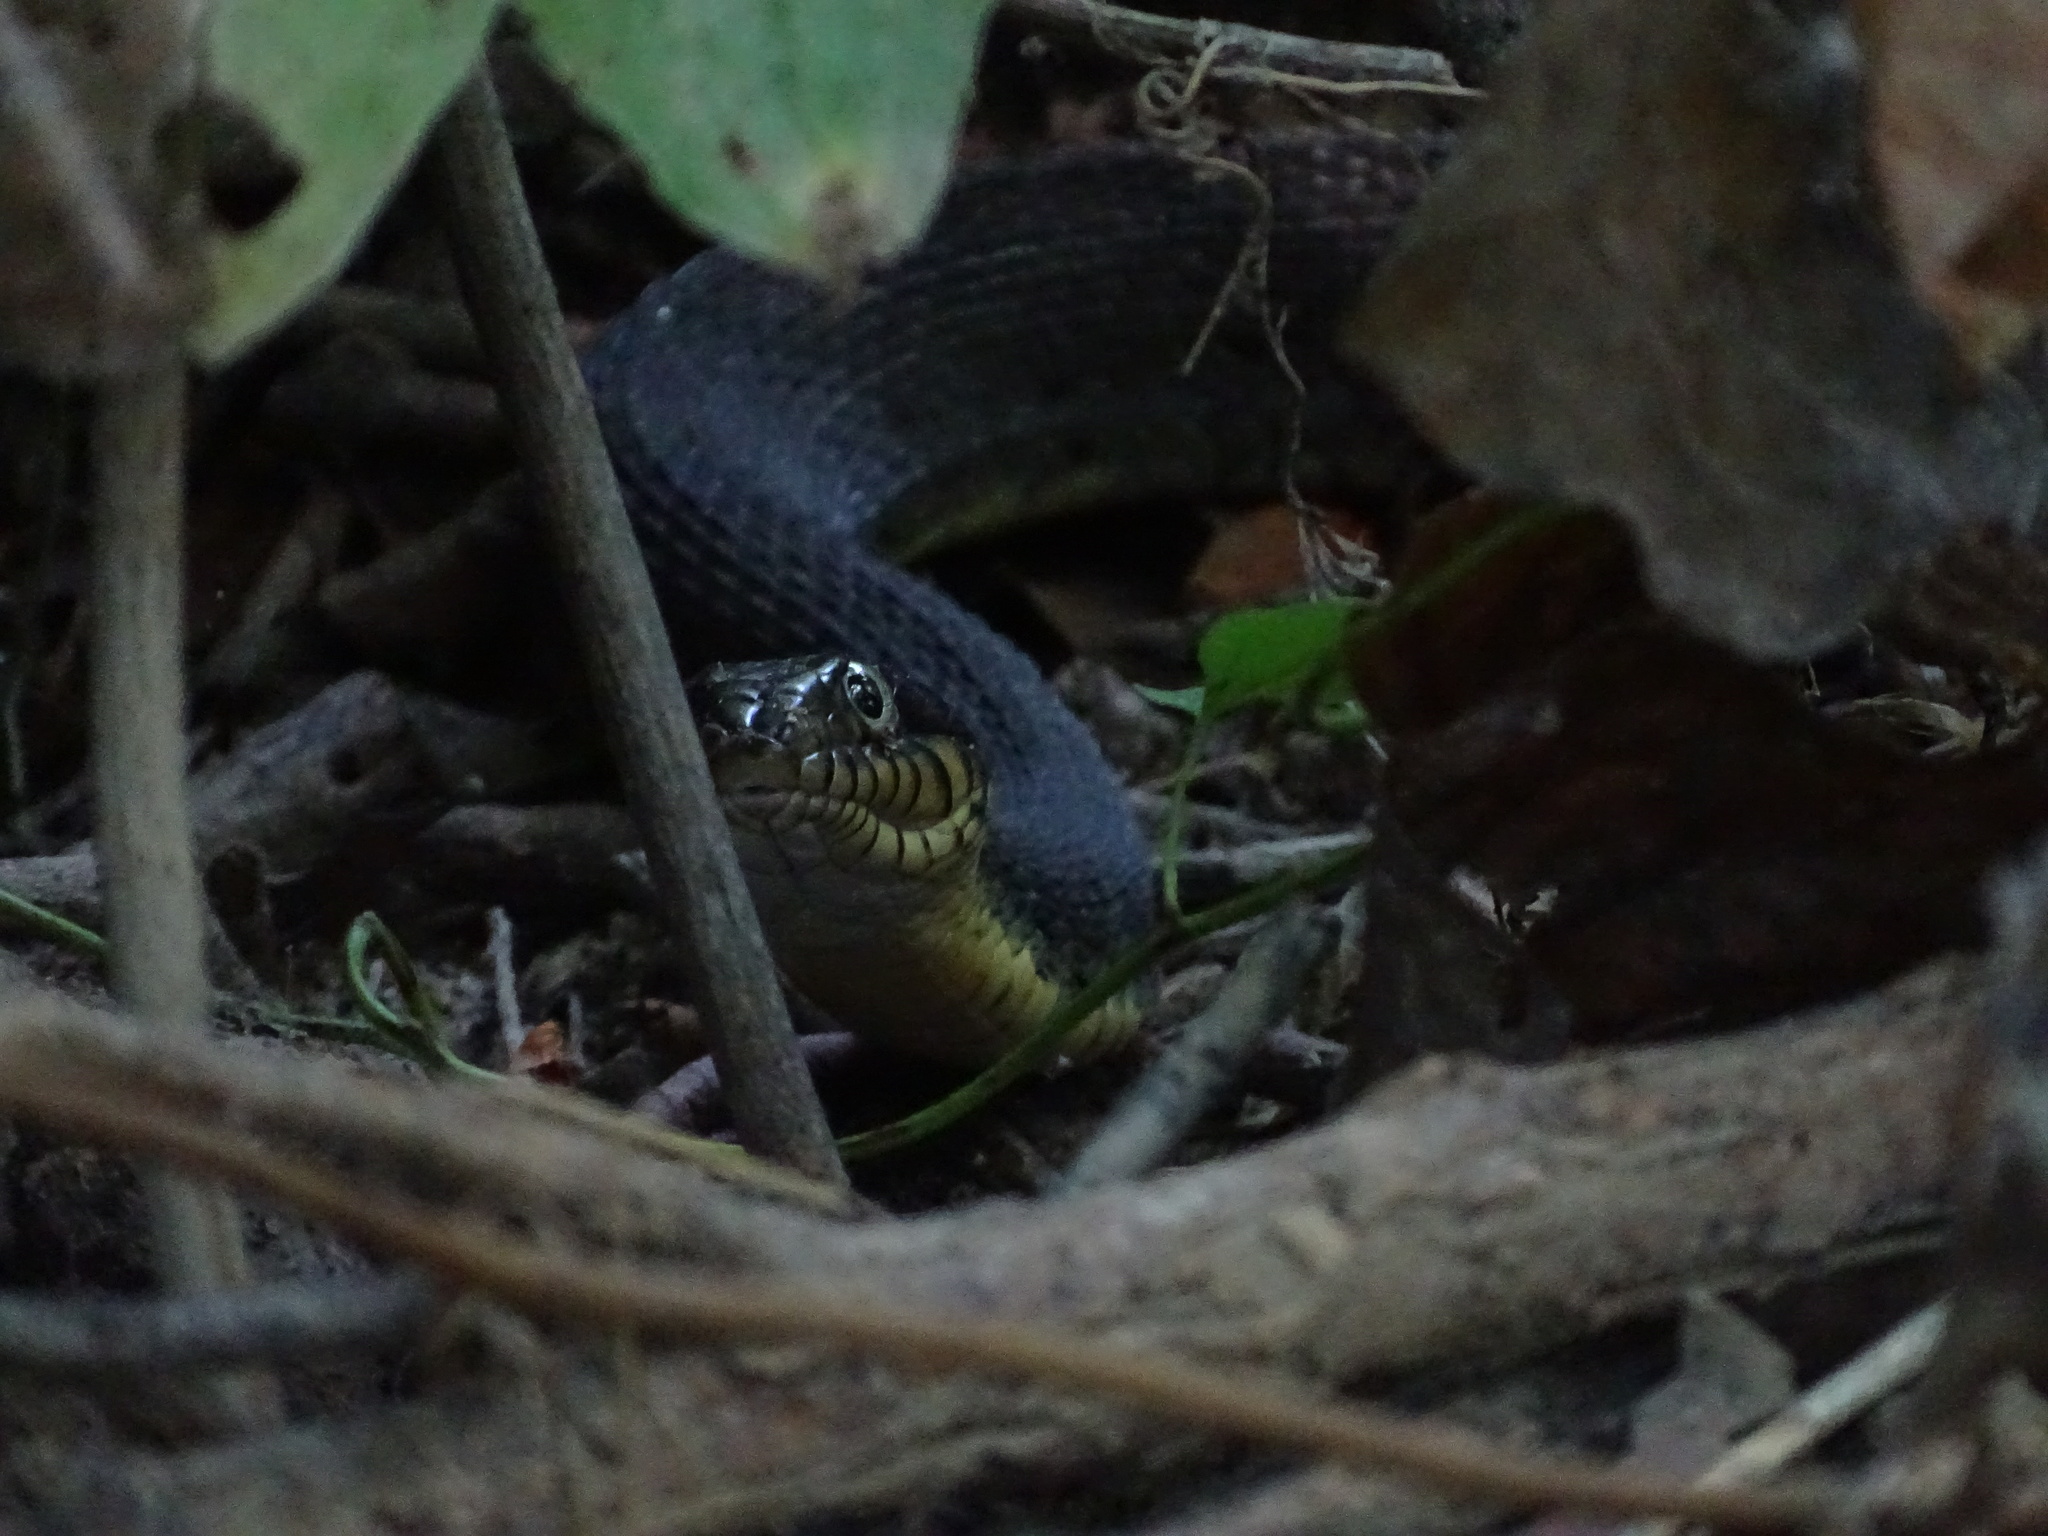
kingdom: Animalia
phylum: Chordata
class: Squamata
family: Colubridae
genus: Nerodia
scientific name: Nerodia erythrogaster
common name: Plainbelly water snake
